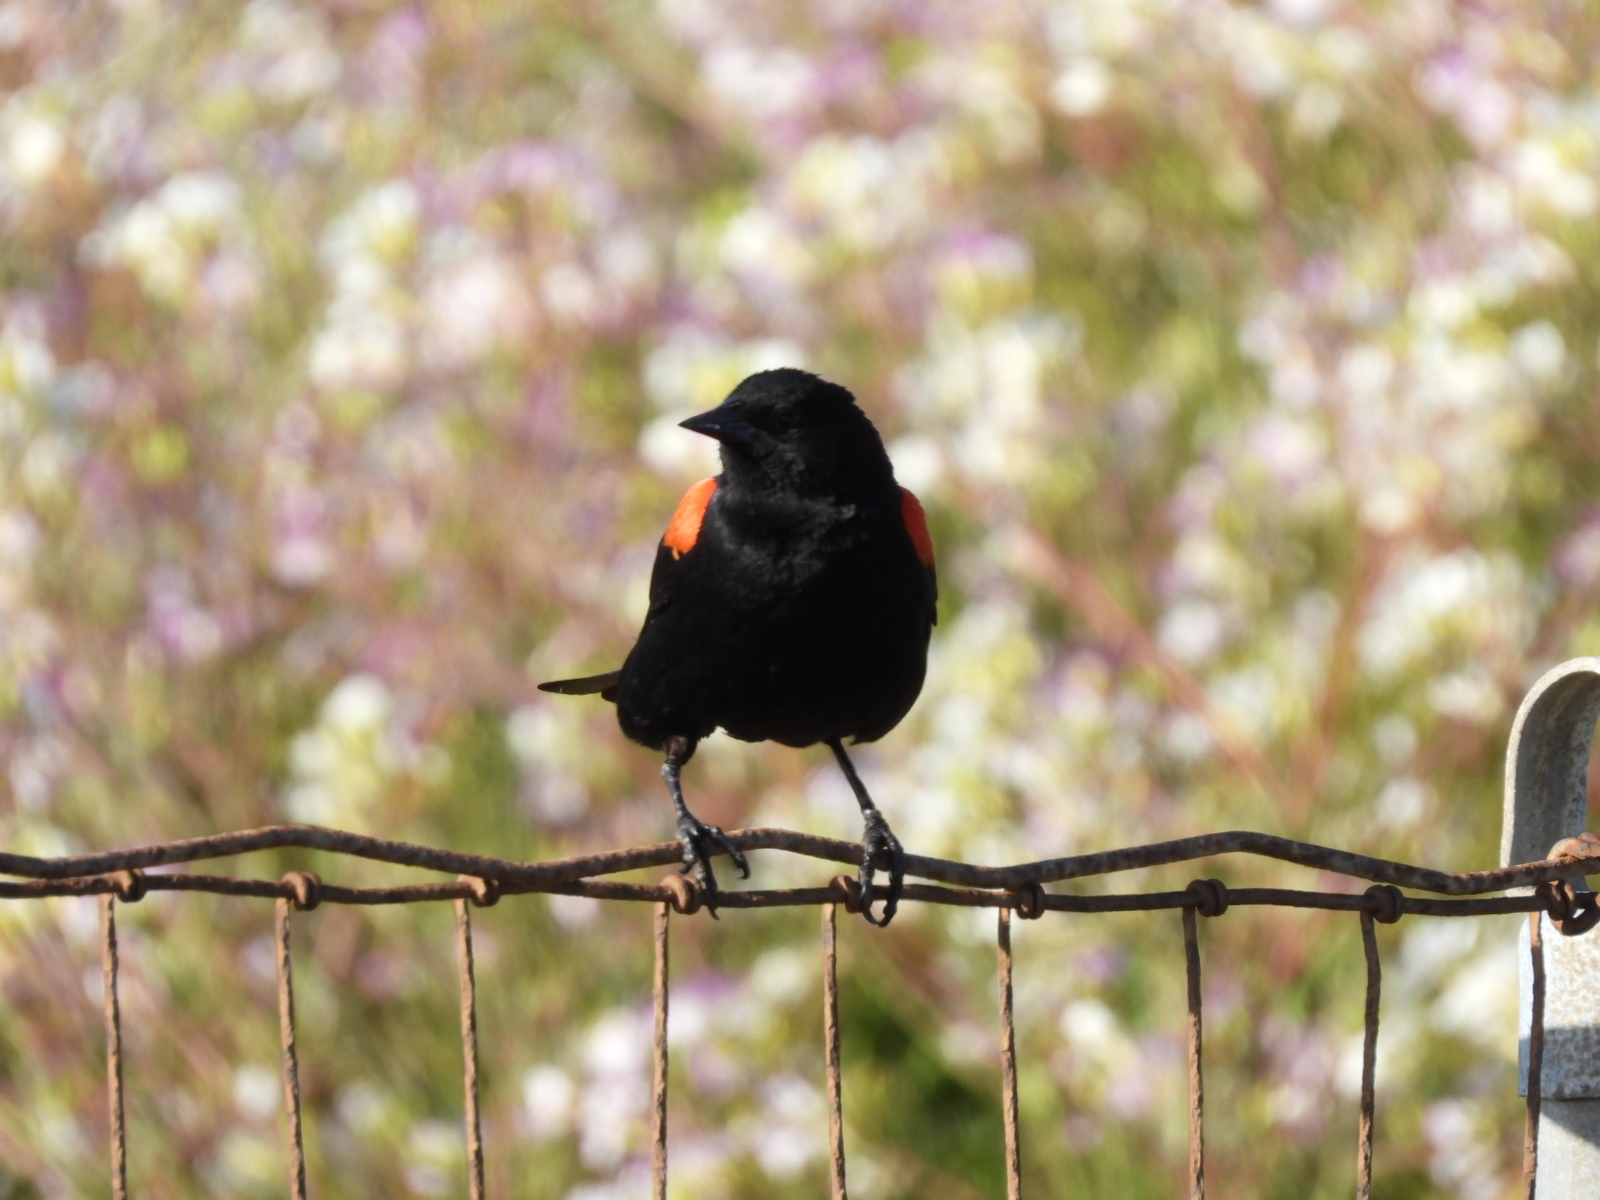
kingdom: Animalia
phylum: Chordata
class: Aves
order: Passeriformes
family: Icteridae
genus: Agelaius
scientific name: Agelaius phoeniceus
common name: Red-winged blackbird
